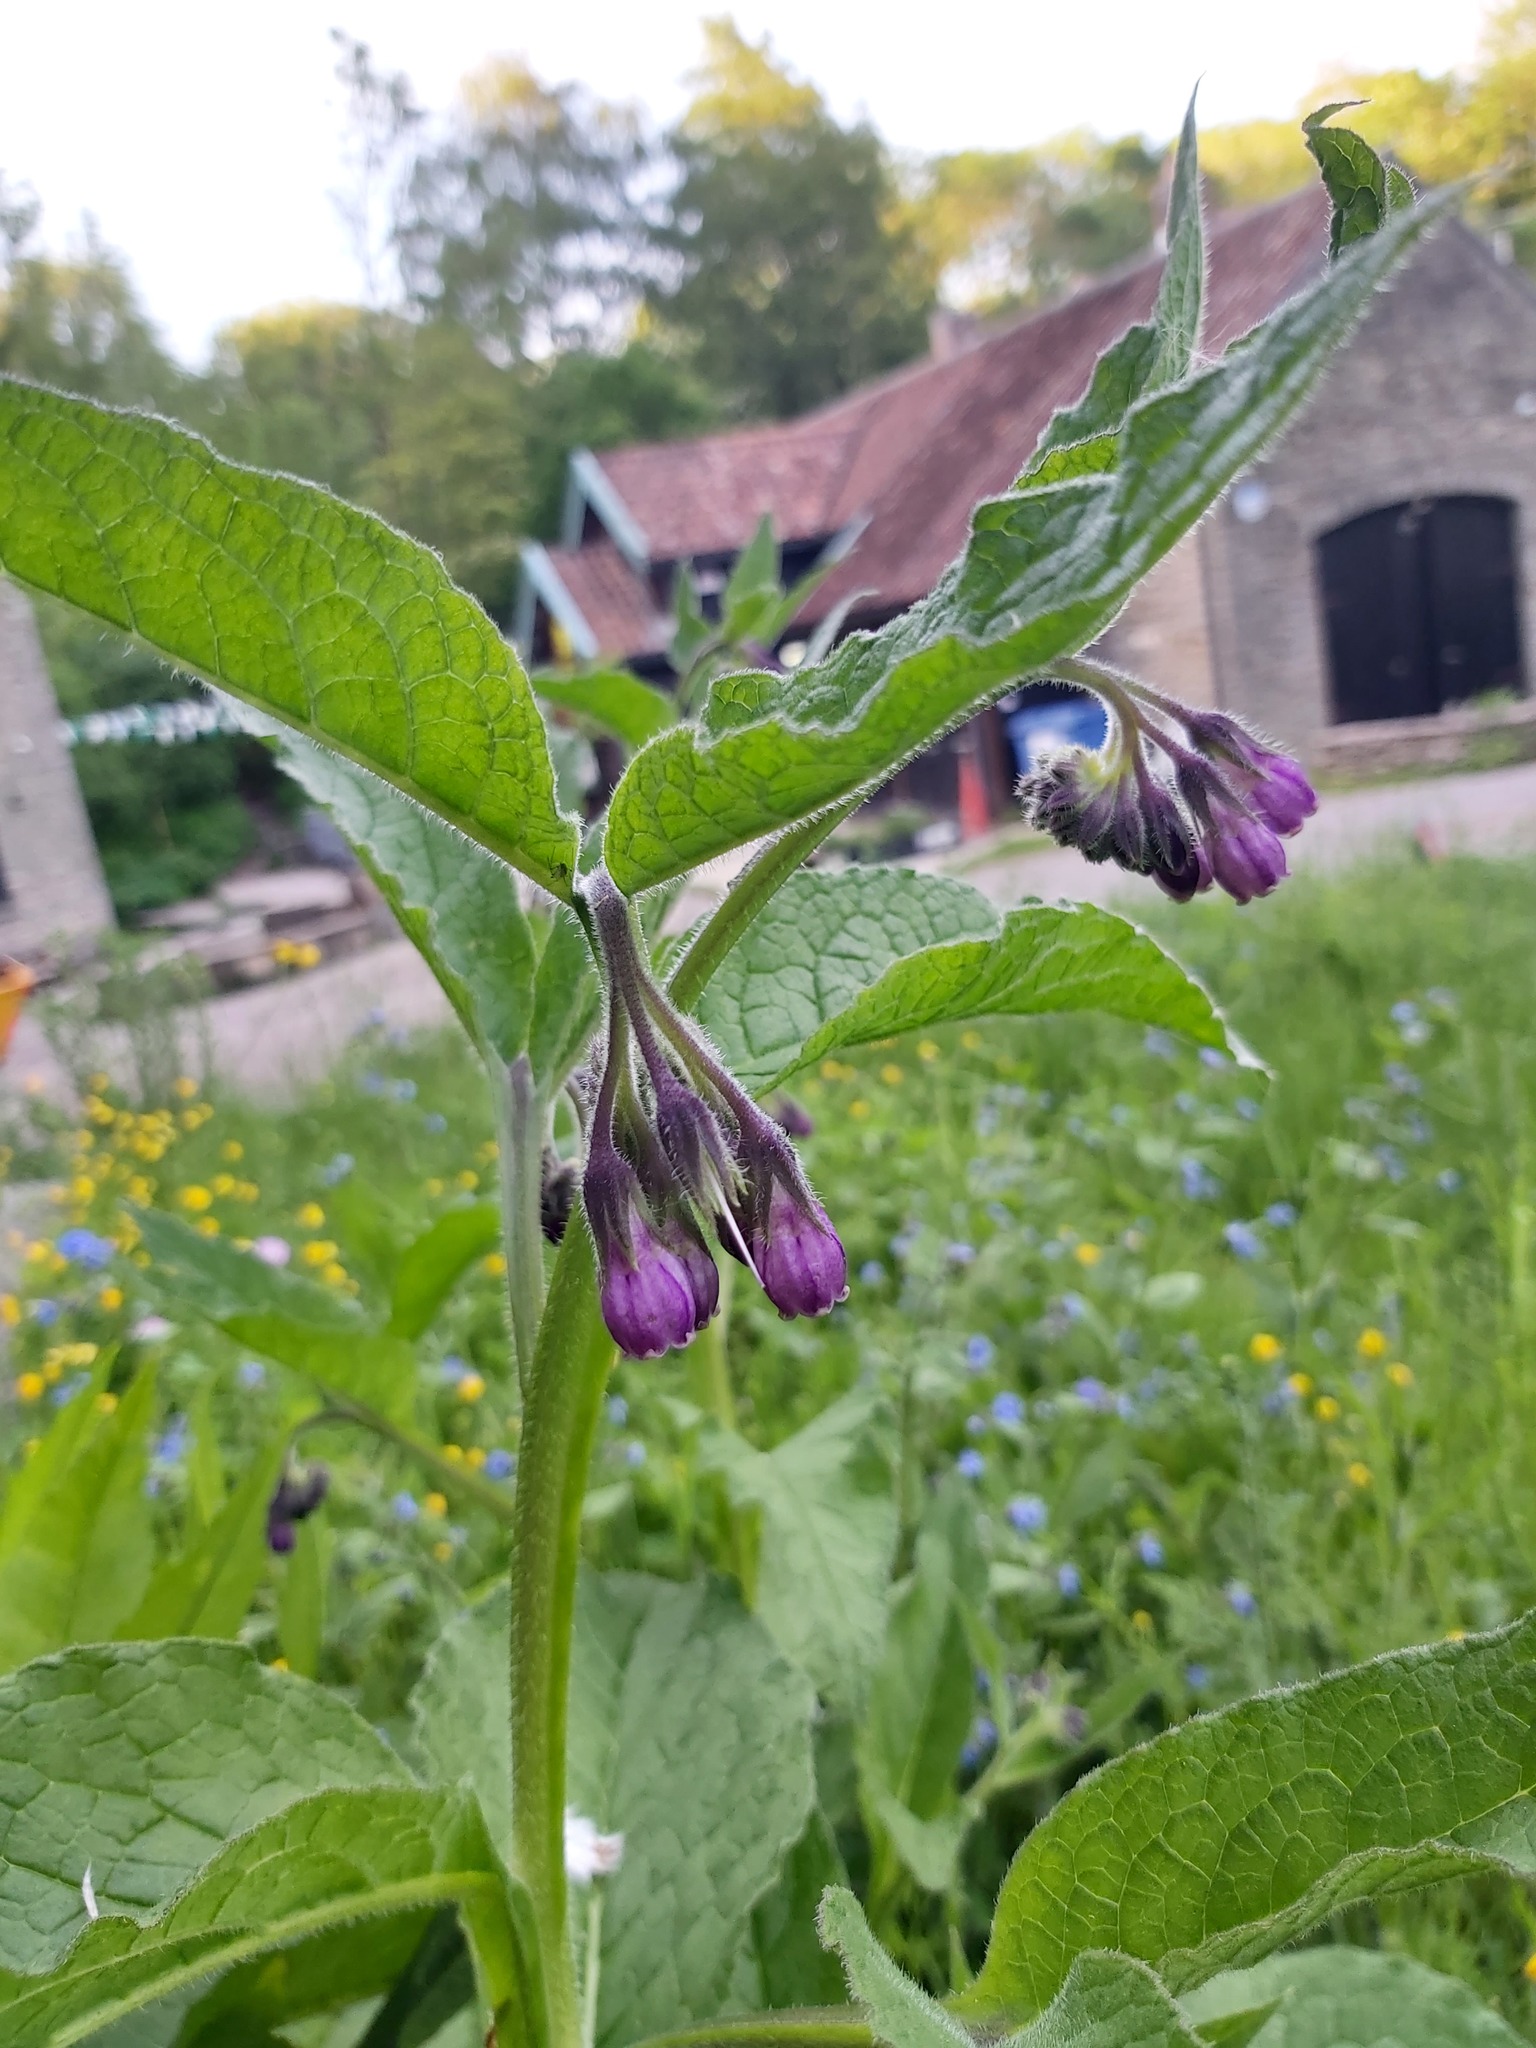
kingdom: Plantae
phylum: Tracheophyta
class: Magnoliopsida
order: Boraginales
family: Boraginaceae
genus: Symphytum
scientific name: Symphytum officinale
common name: Common comfrey
